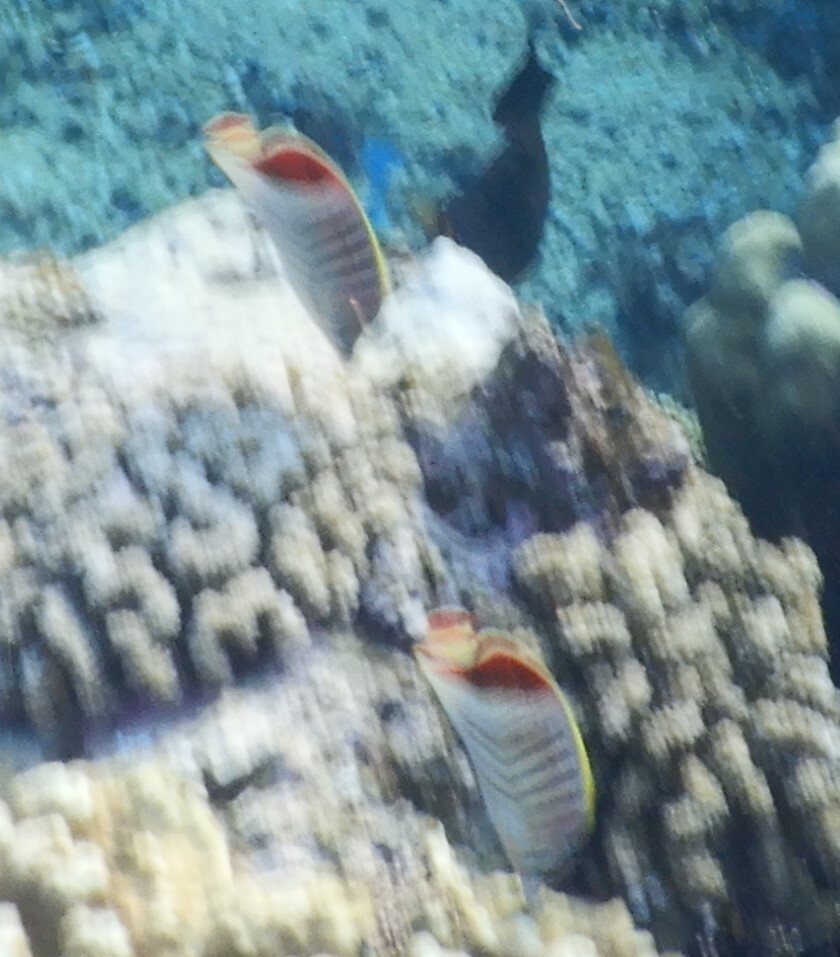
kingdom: Animalia
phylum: Chordata
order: Perciformes
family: Chaetodontidae
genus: Chaetodon
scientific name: Chaetodon paucifasciatus
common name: Crown butterflyfish
